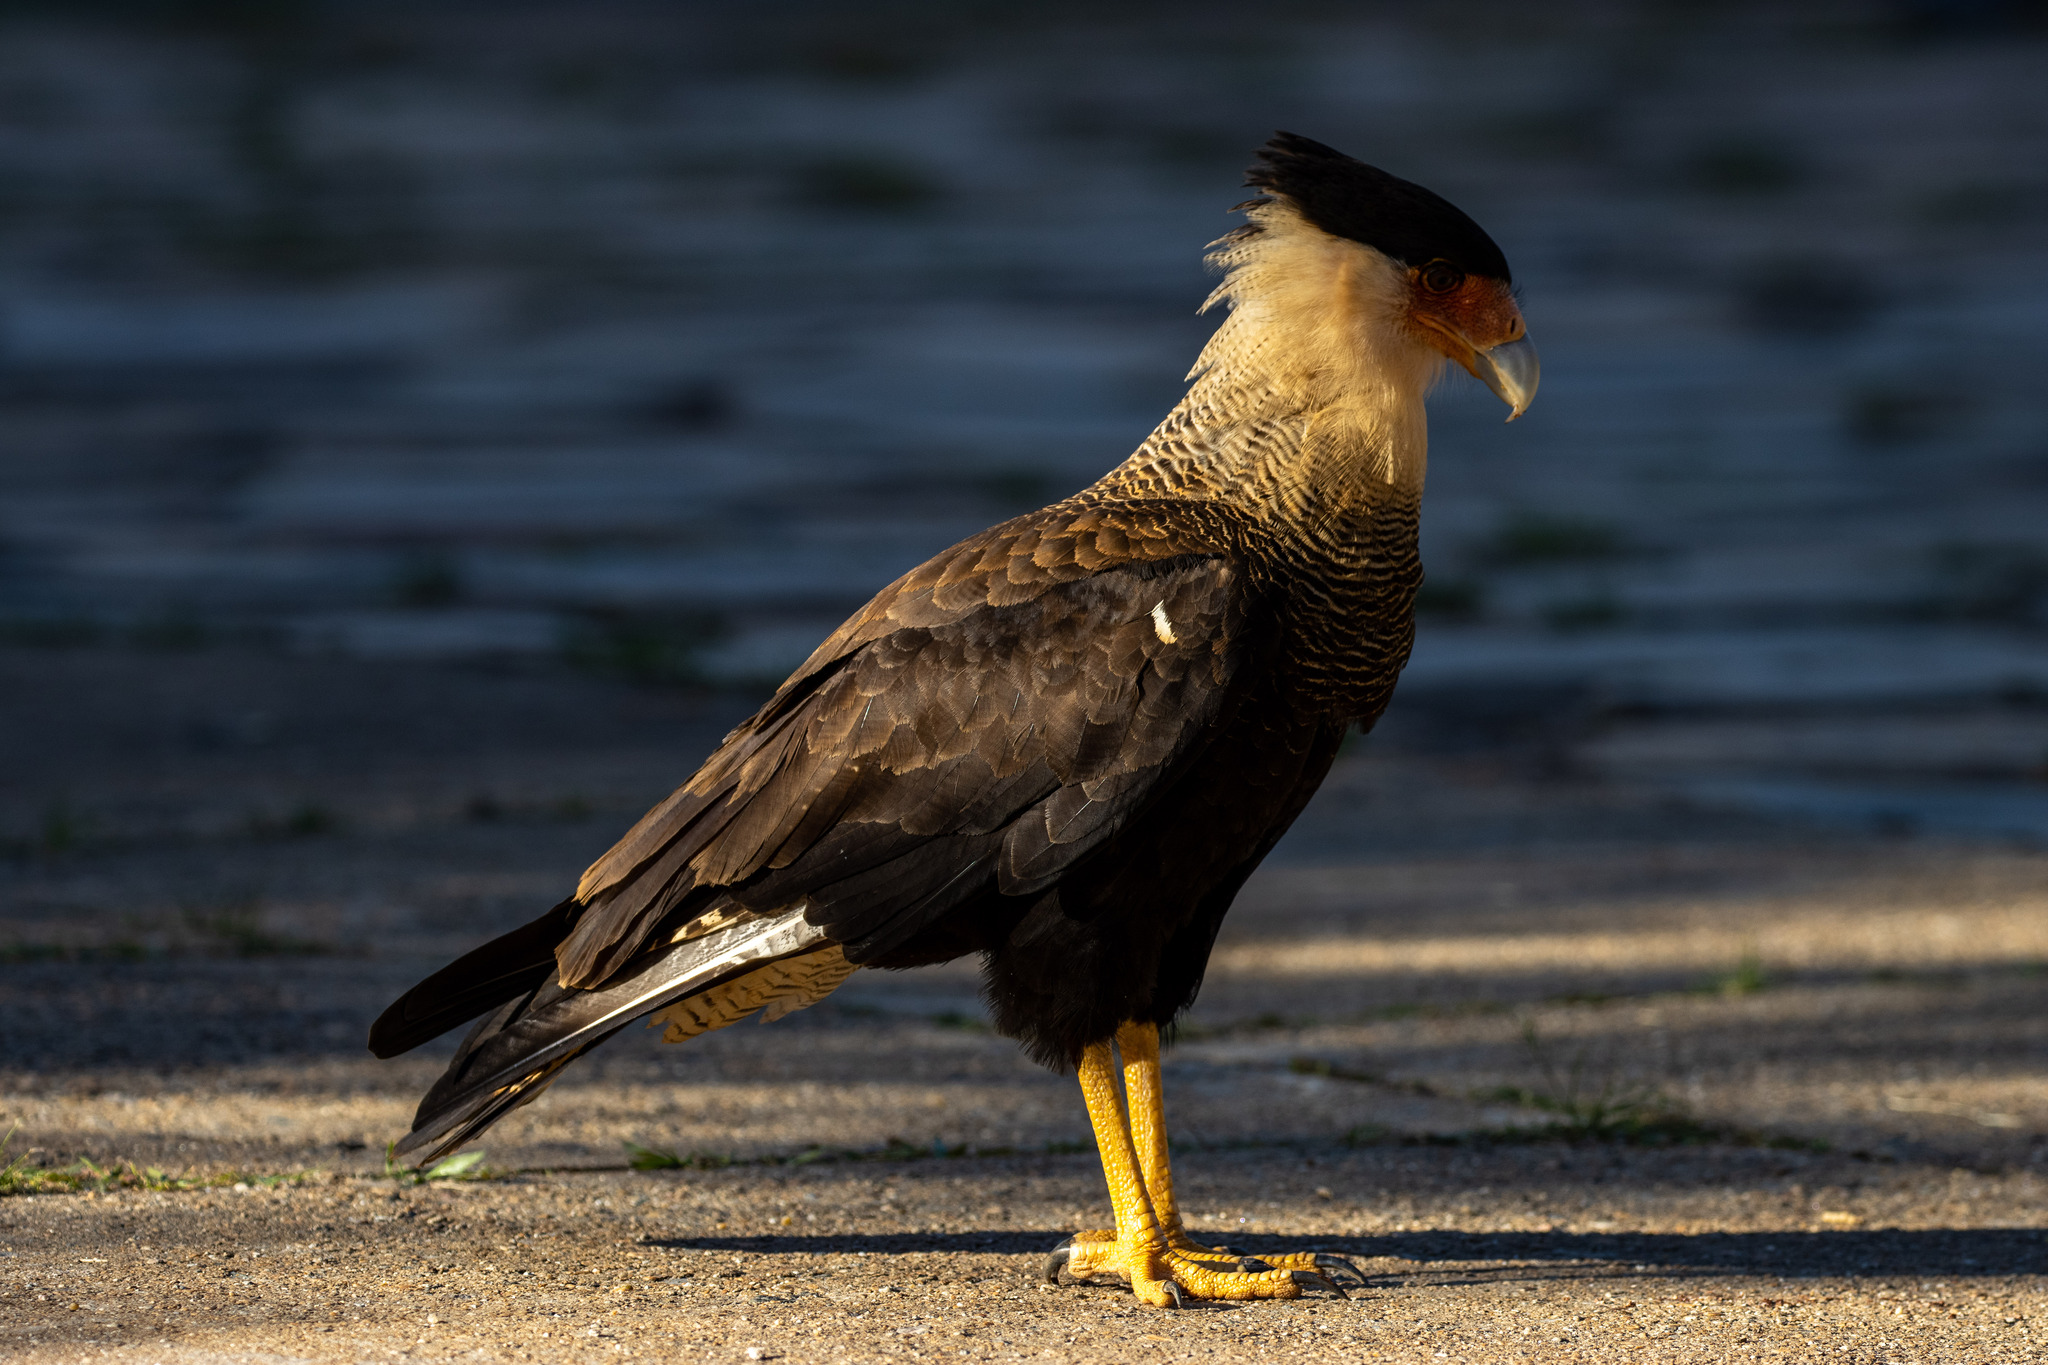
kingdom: Animalia
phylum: Chordata
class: Aves
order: Falconiformes
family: Falconidae
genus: Caracara
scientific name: Caracara plancus
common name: Southern caracara
